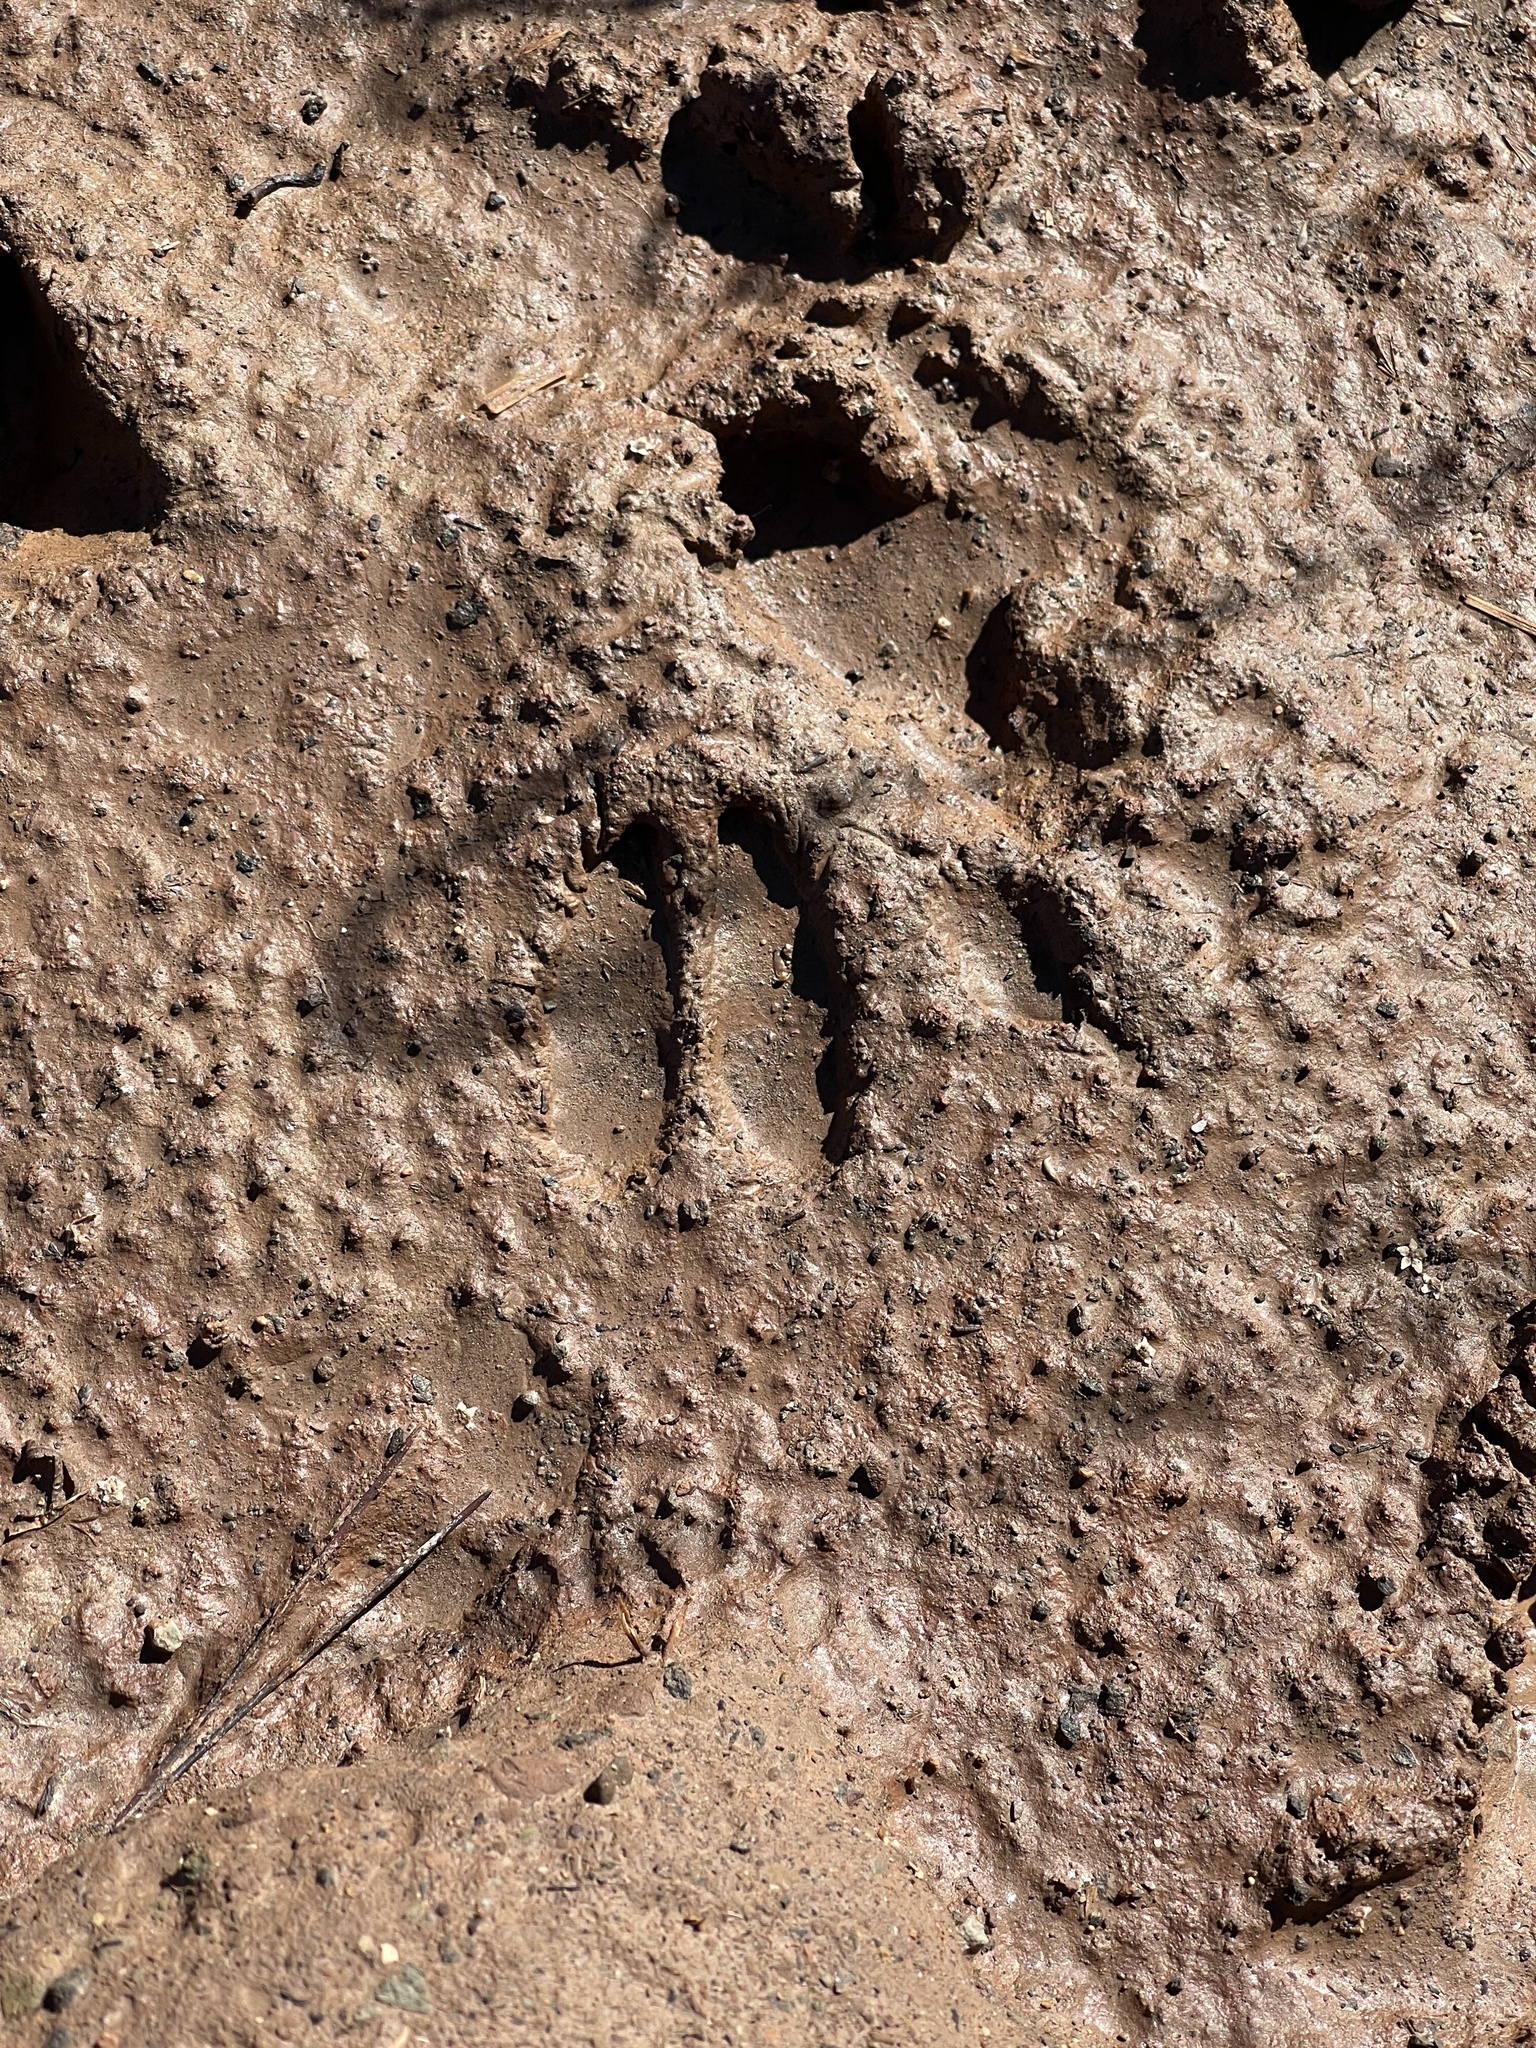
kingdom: Animalia
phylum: Chordata
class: Mammalia
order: Artiodactyla
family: Cervidae
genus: Capreolus
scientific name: Capreolus capreolus
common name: Western roe deer
